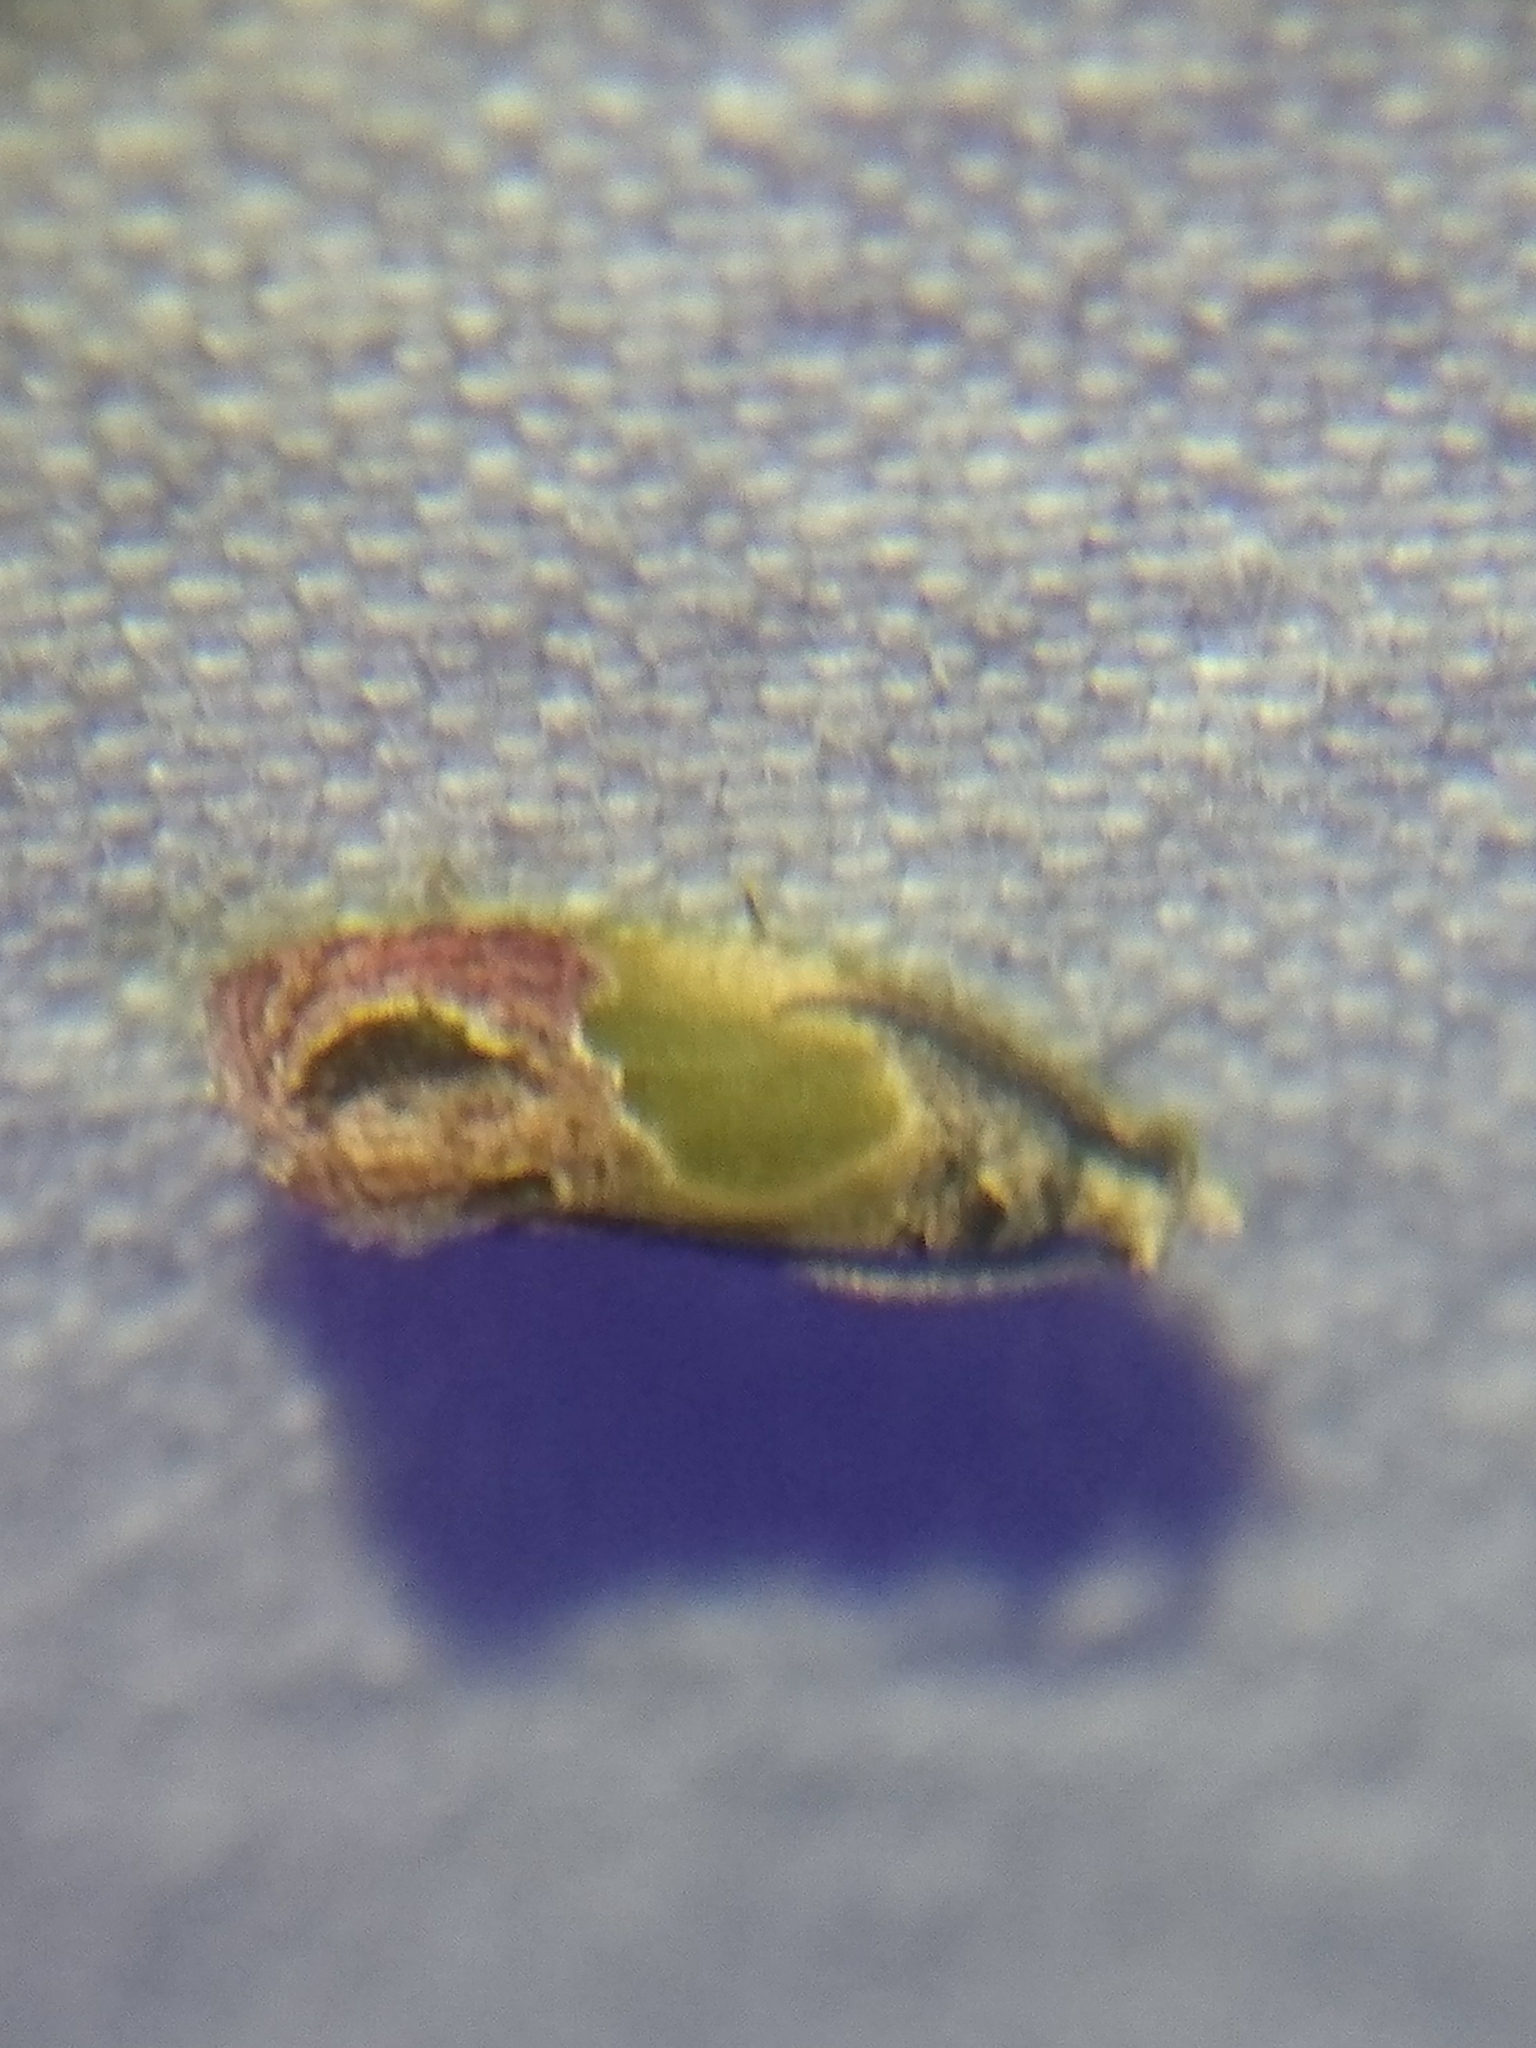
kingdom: Animalia
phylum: Arthropoda
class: Insecta
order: Lepidoptera
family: Tortricidae
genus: Eumarozia
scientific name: Eumarozia malachitana
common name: Sculptured moth
